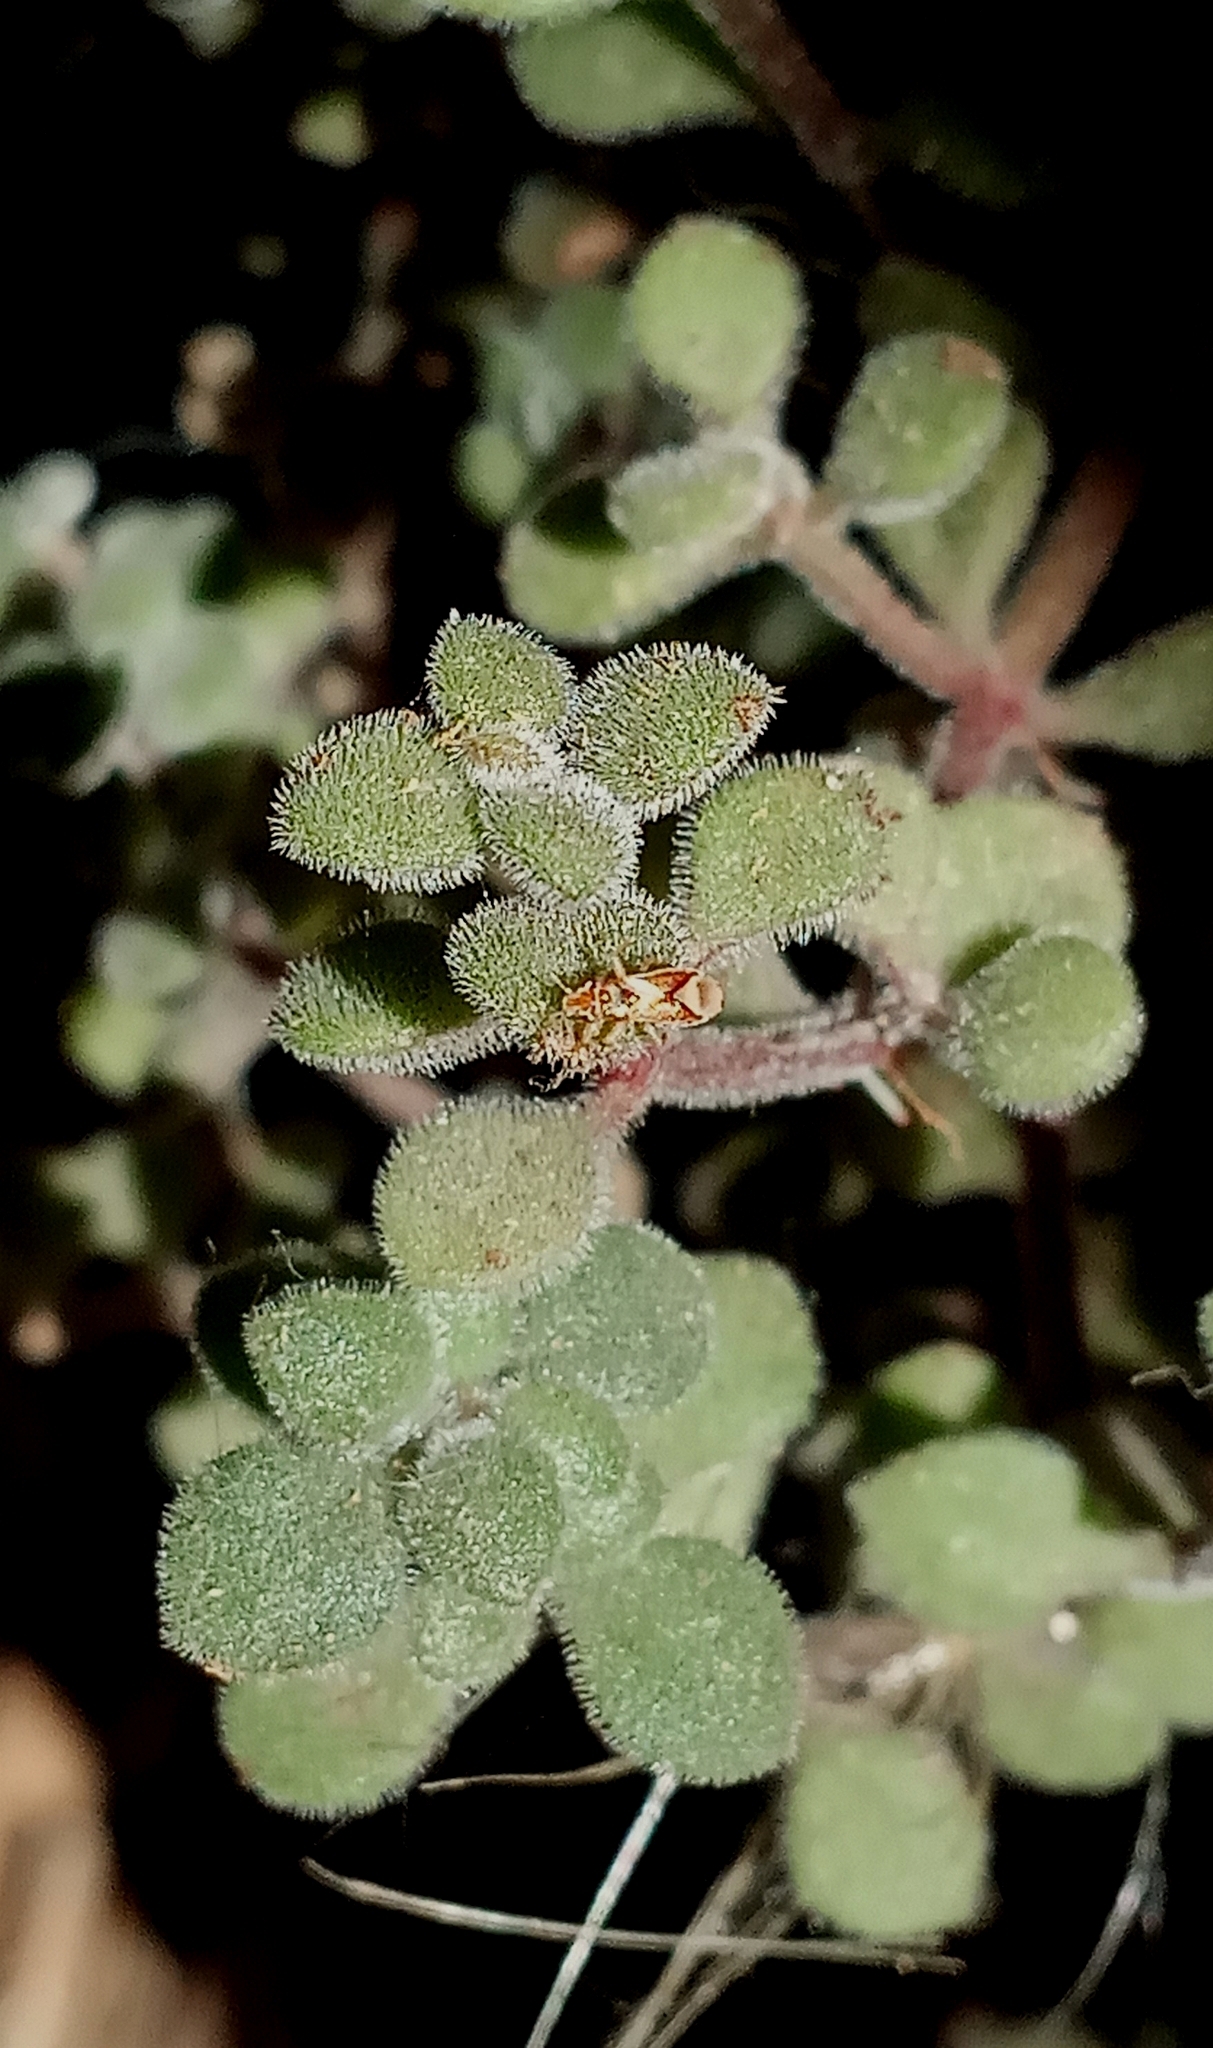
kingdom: Animalia
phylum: Arthropoda
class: Insecta
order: Hemiptera
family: Thaumastocoridae
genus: Thaumastocoris
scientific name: Thaumastocoris peregrinus
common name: Bronze bug
